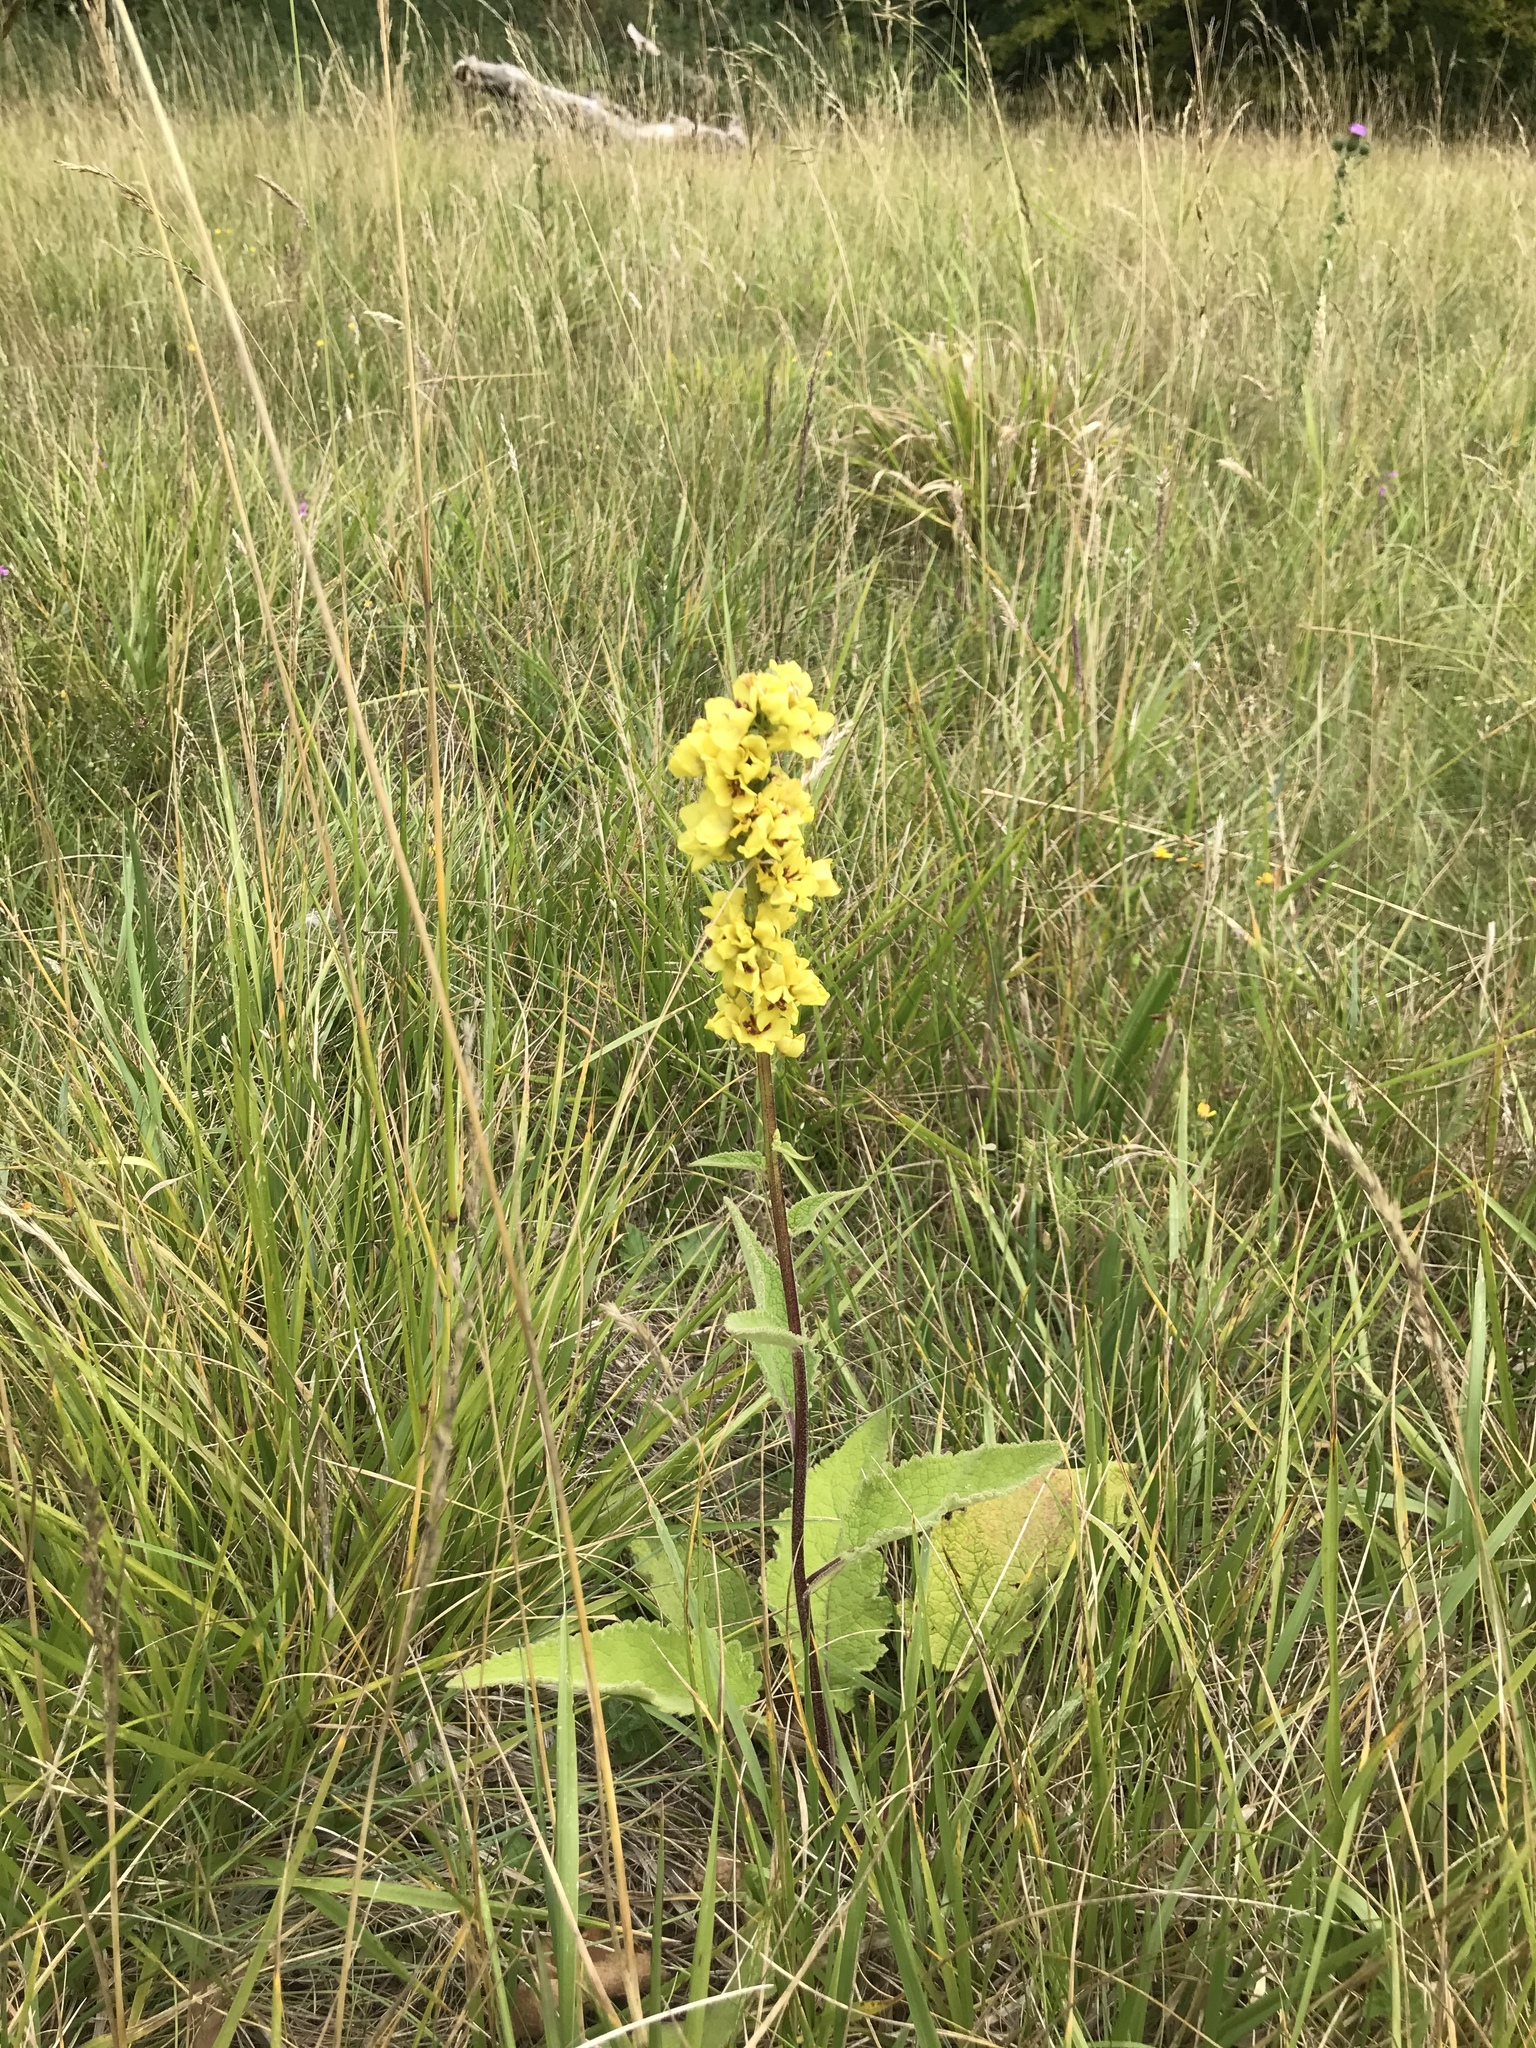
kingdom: Plantae
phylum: Tracheophyta
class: Magnoliopsida
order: Lamiales
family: Scrophulariaceae
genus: Verbascum
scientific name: Verbascum nigrum
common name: Dark mullein
